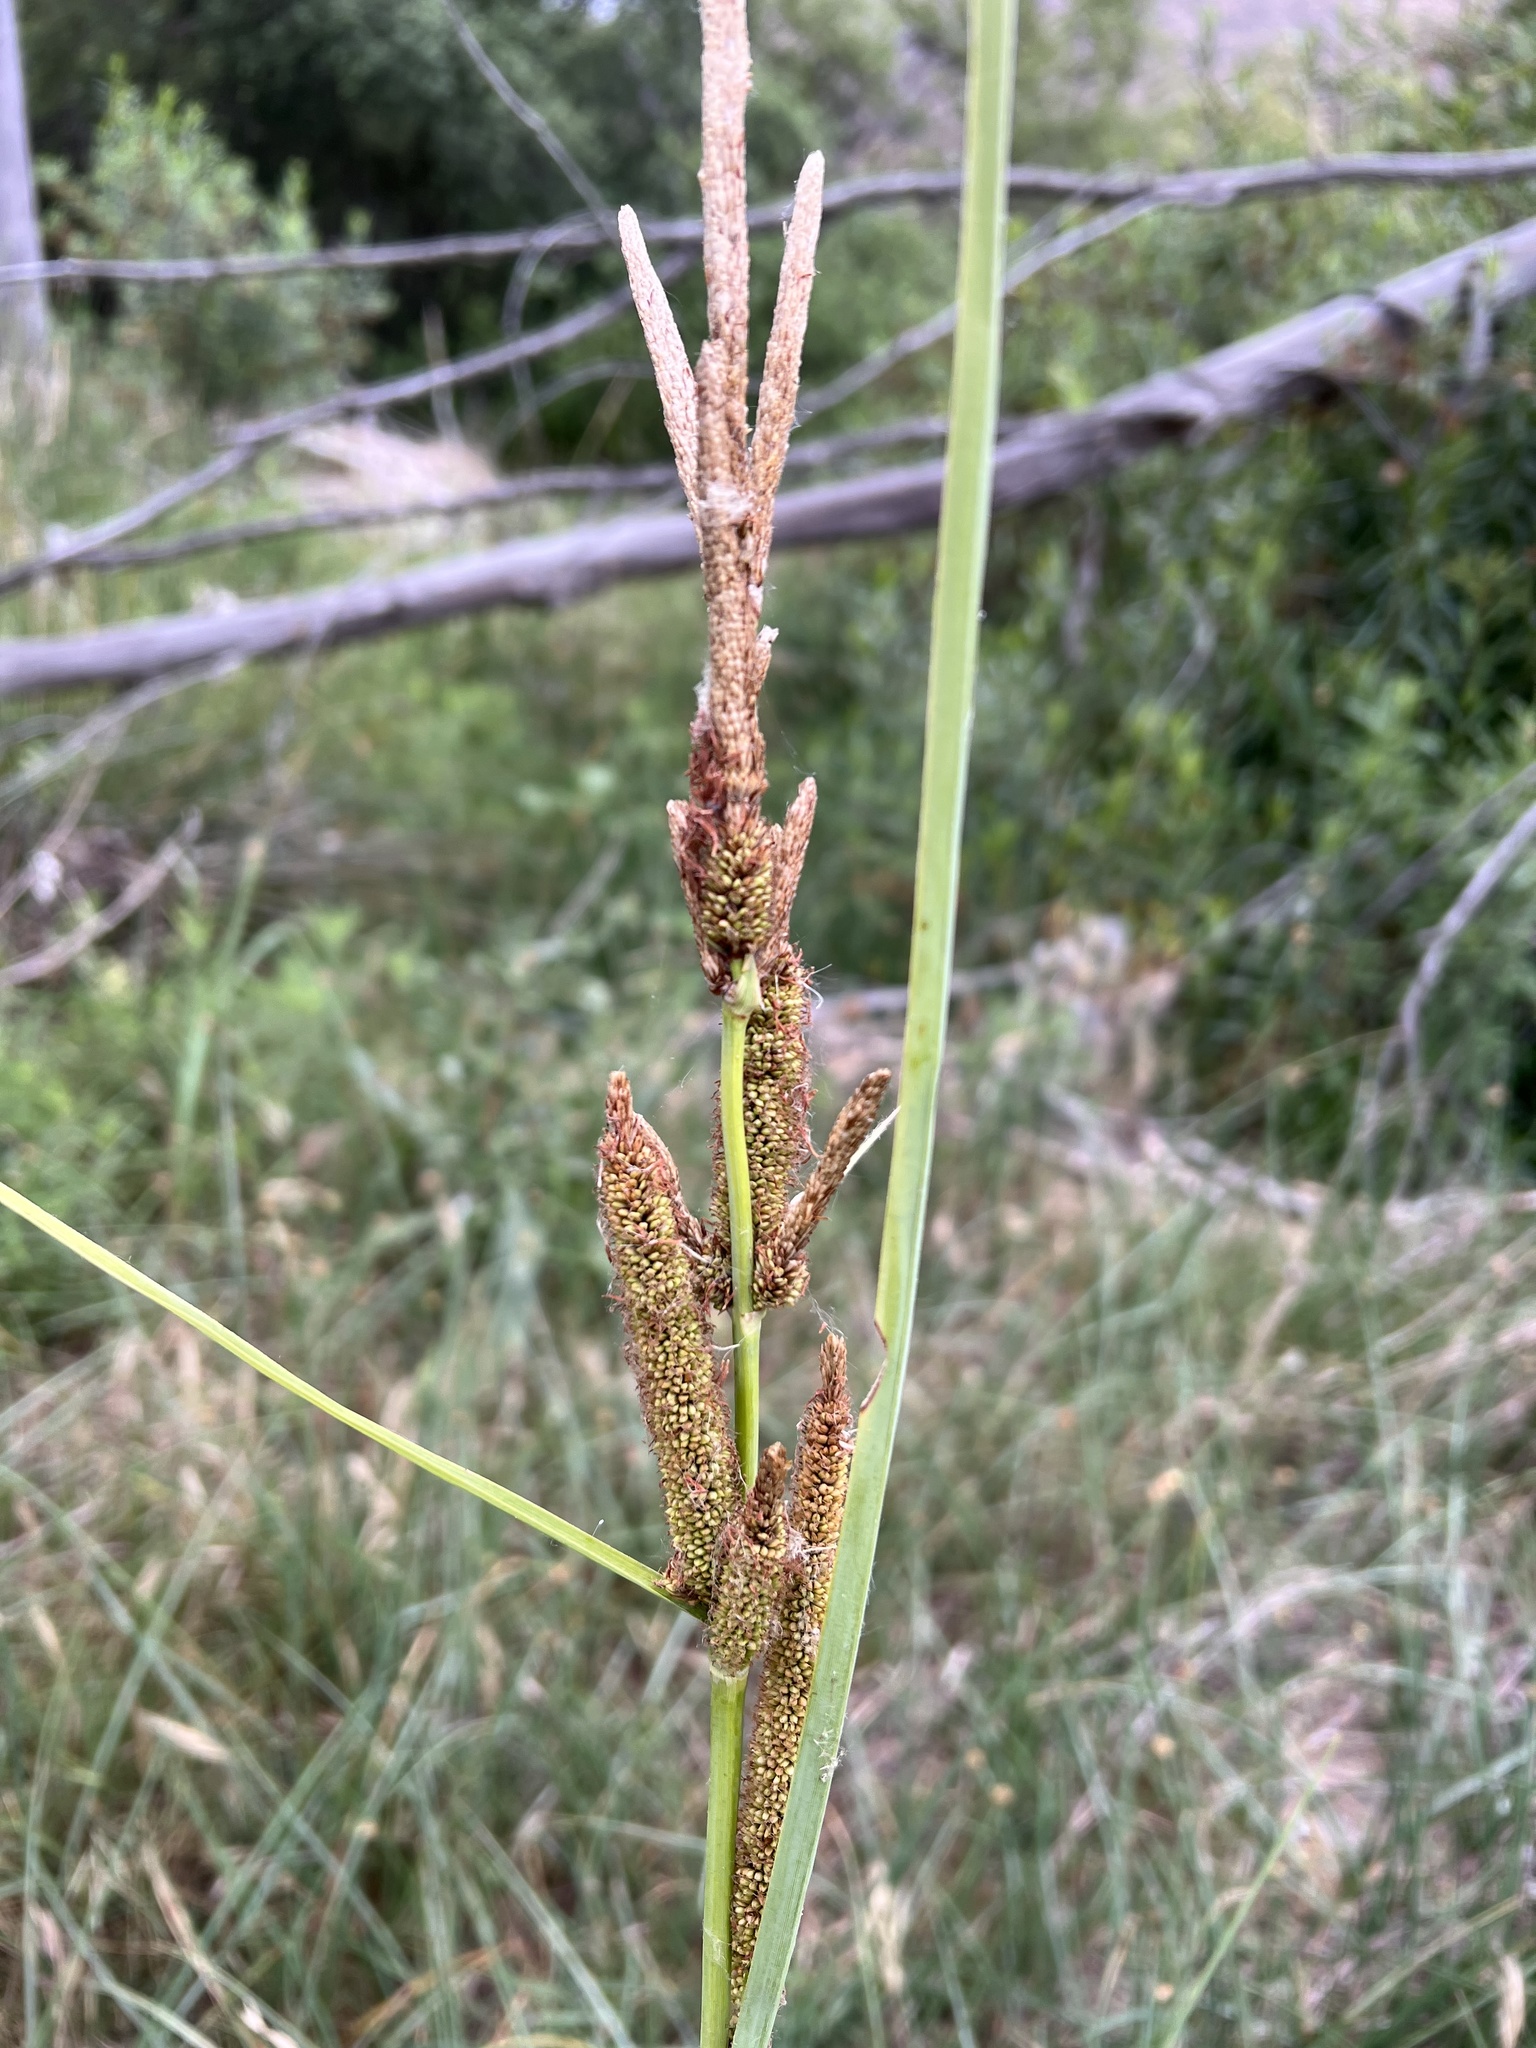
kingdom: Plantae
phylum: Tracheophyta
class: Liliopsida
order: Poales
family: Cyperaceae
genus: Carex
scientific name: Carex spissa
